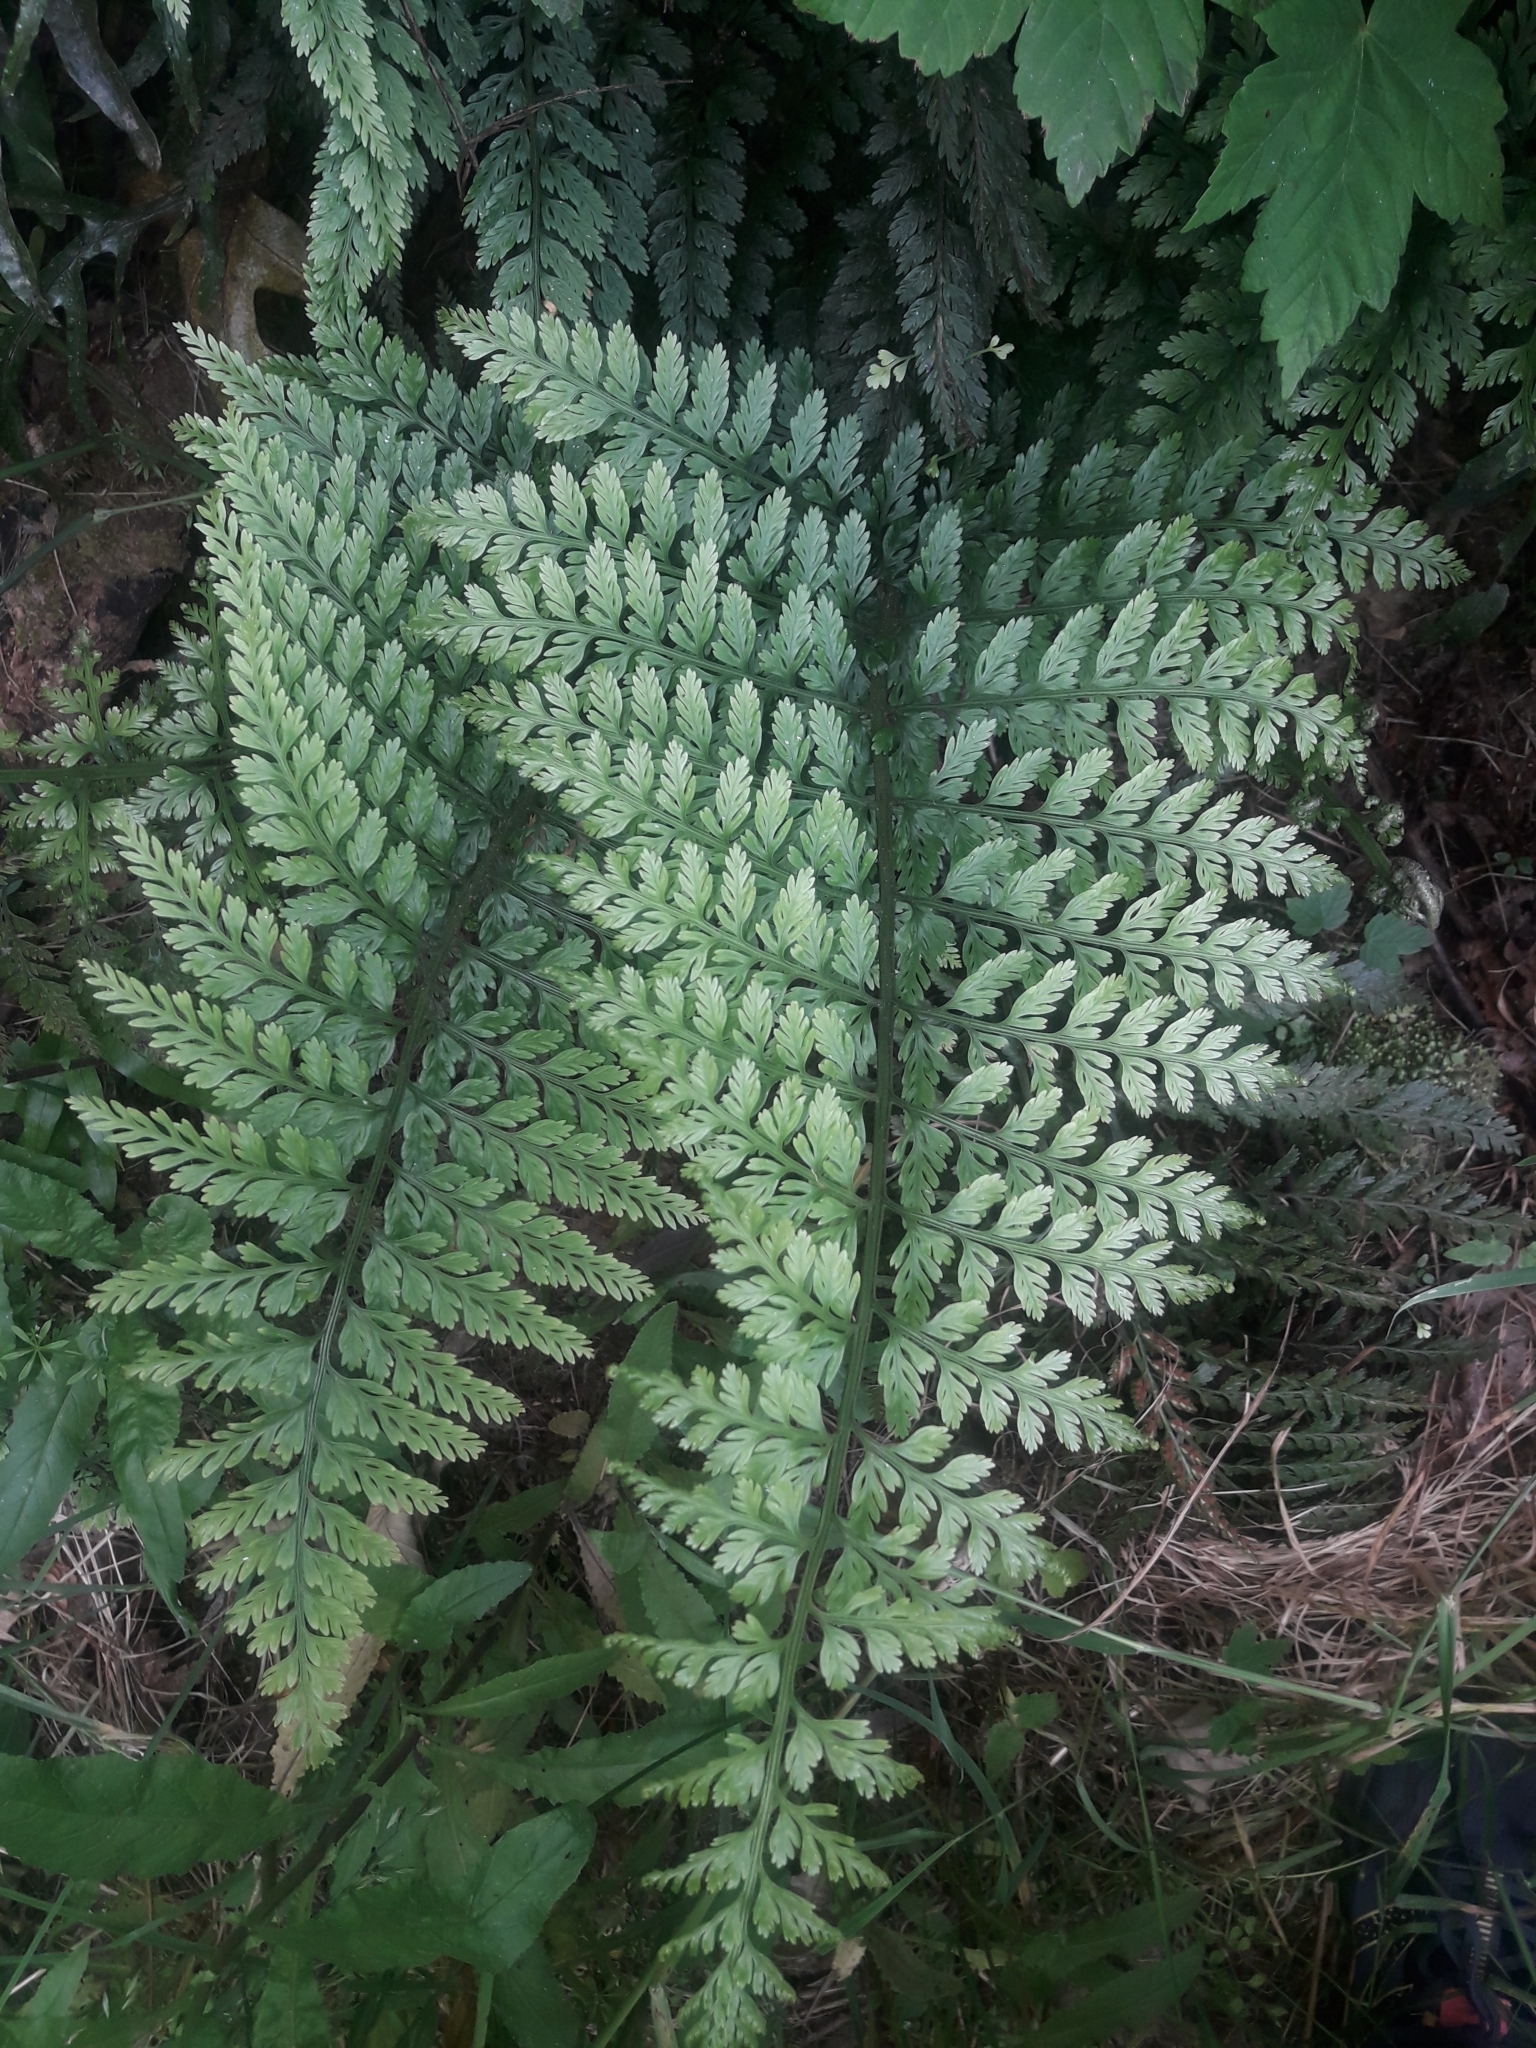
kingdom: Plantae
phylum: Tracheophyta
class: Polypodiopsida
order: Polypodiales
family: Aspleniaceae
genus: Asplenium
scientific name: Asplenium
